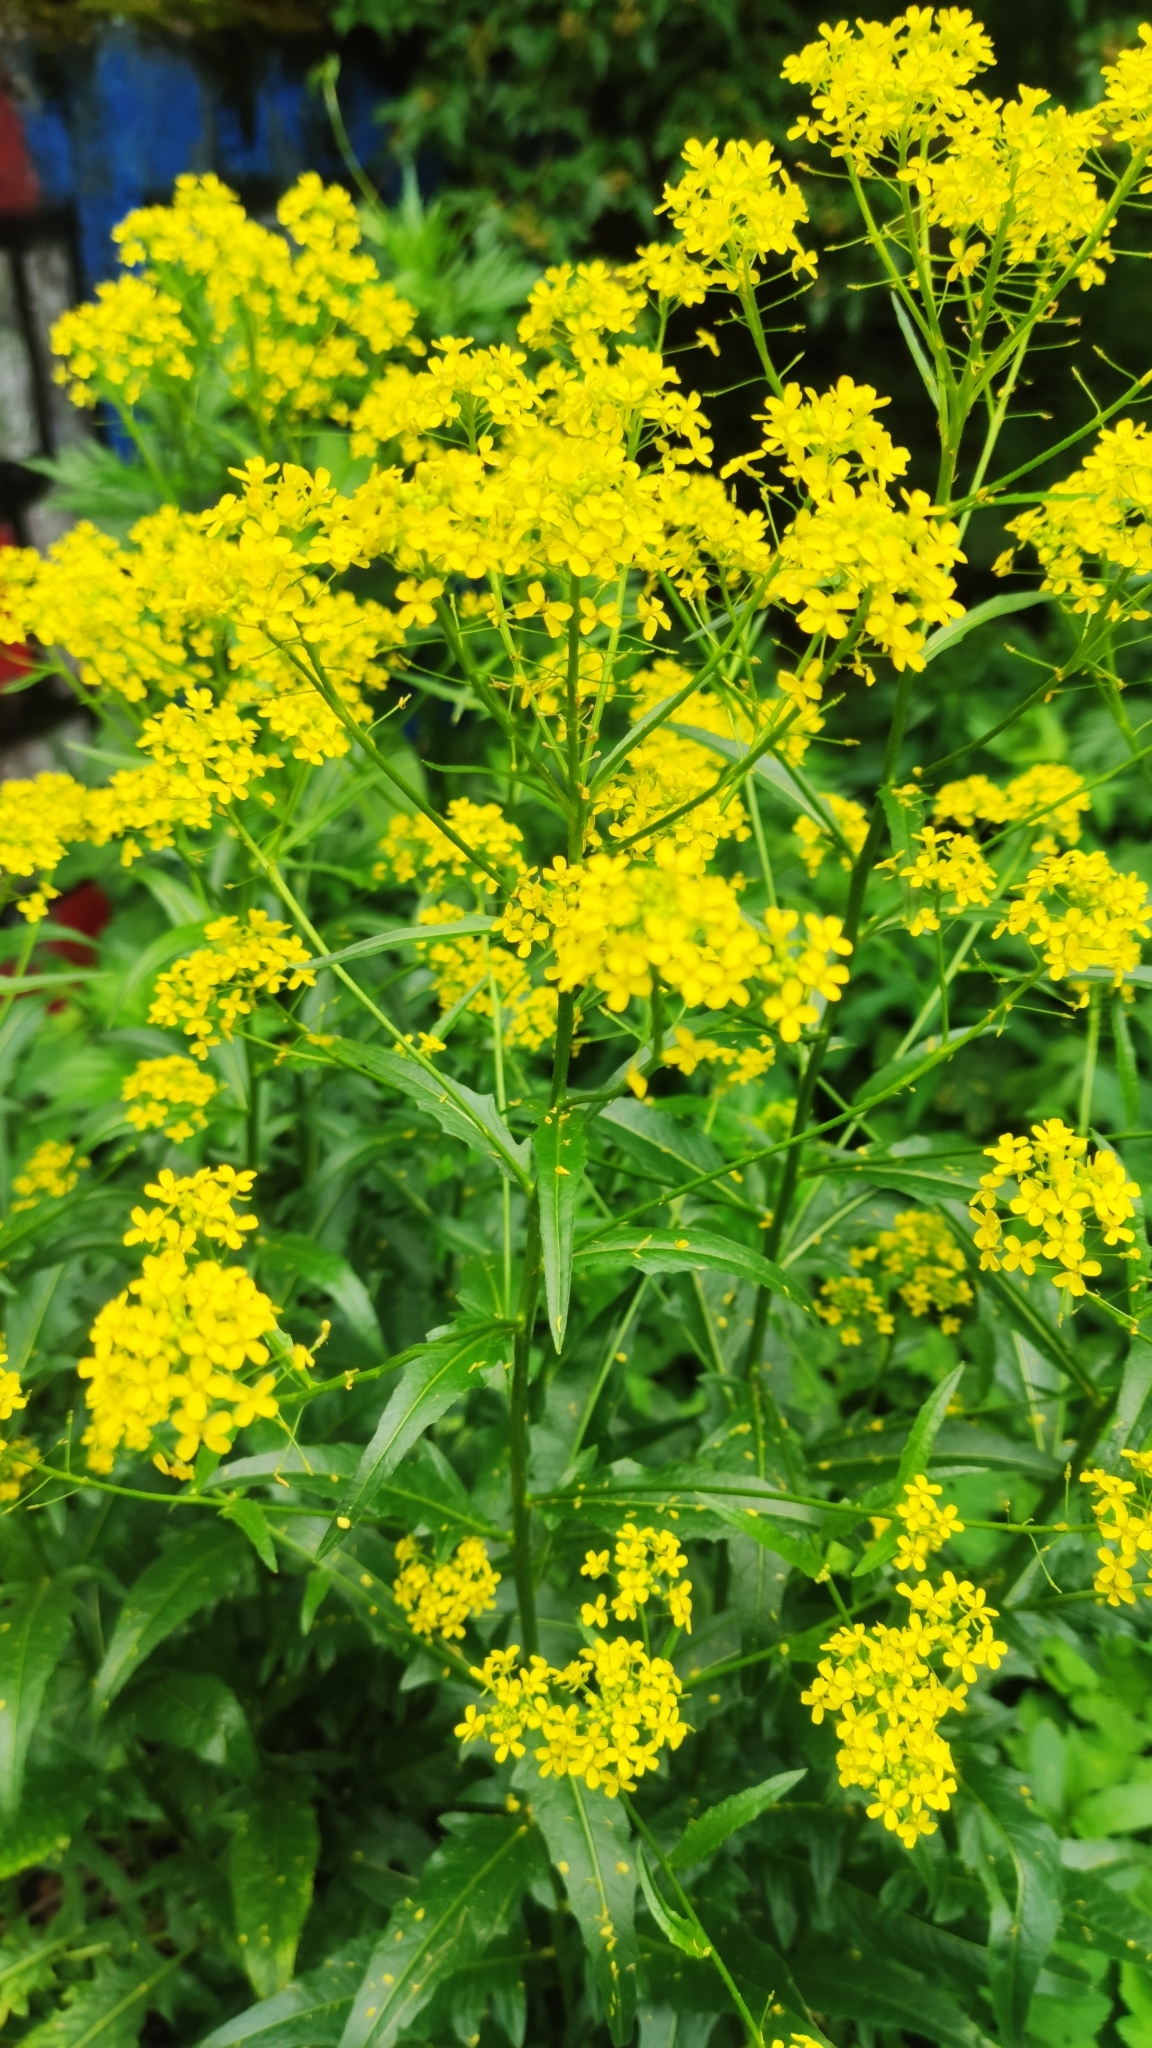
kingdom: Plantae
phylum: Tracheophyta
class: Magnoliopsida
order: Brassicales
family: Brassicaceae
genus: Bunias
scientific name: Bunias orientalis
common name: Warty-cabbage
